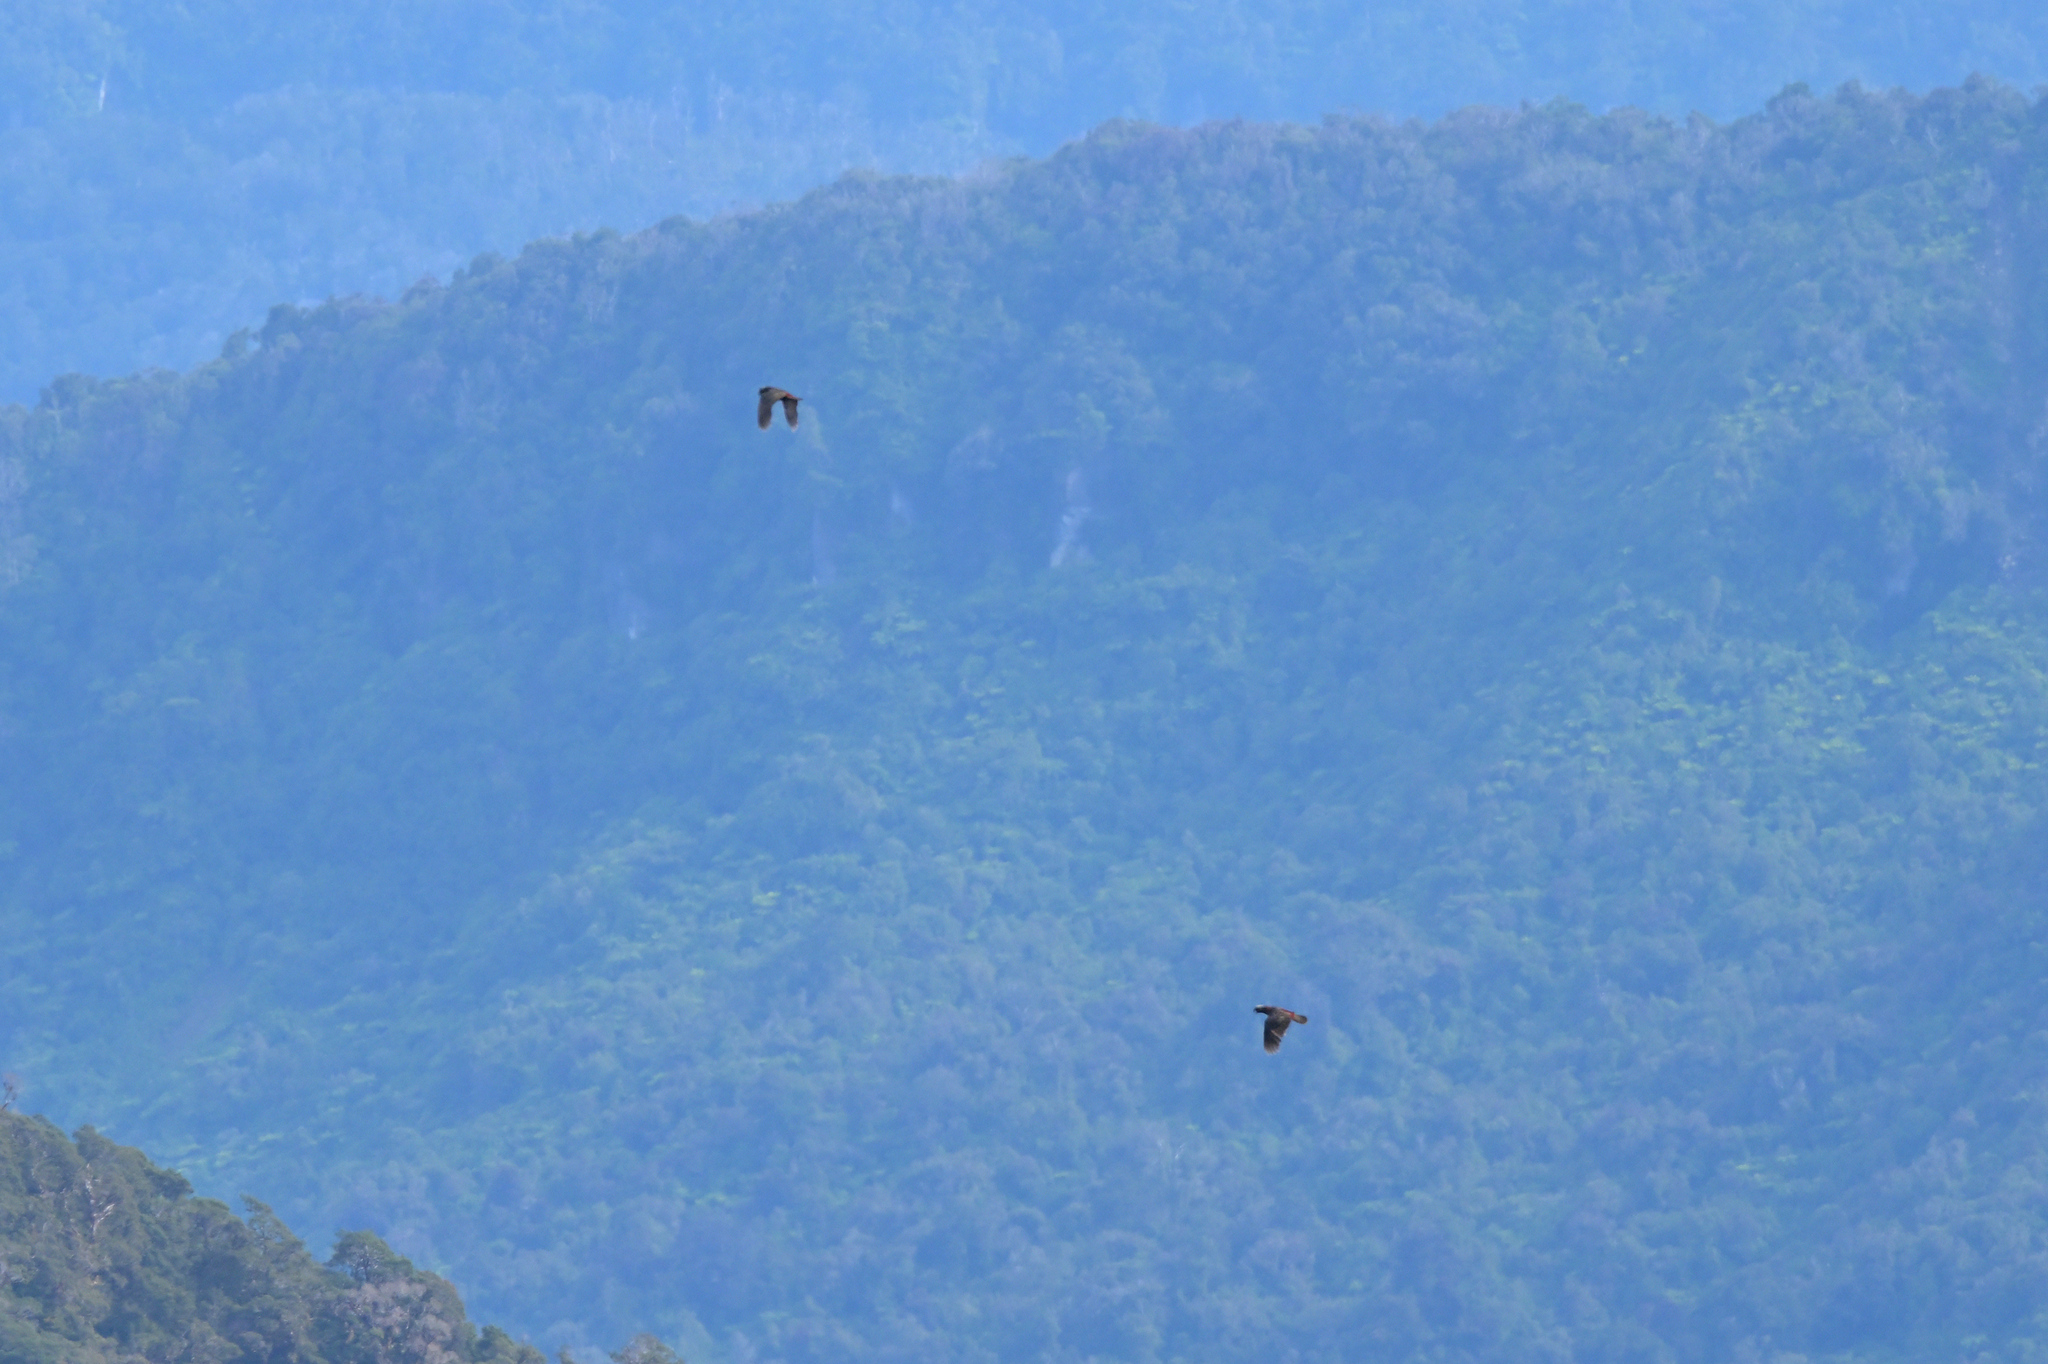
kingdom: Animalia
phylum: Chordata
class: Aves
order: Psittaciformes
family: Psittacidae
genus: Nestor
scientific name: Nestor meridionalis
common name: New zealand kaka
